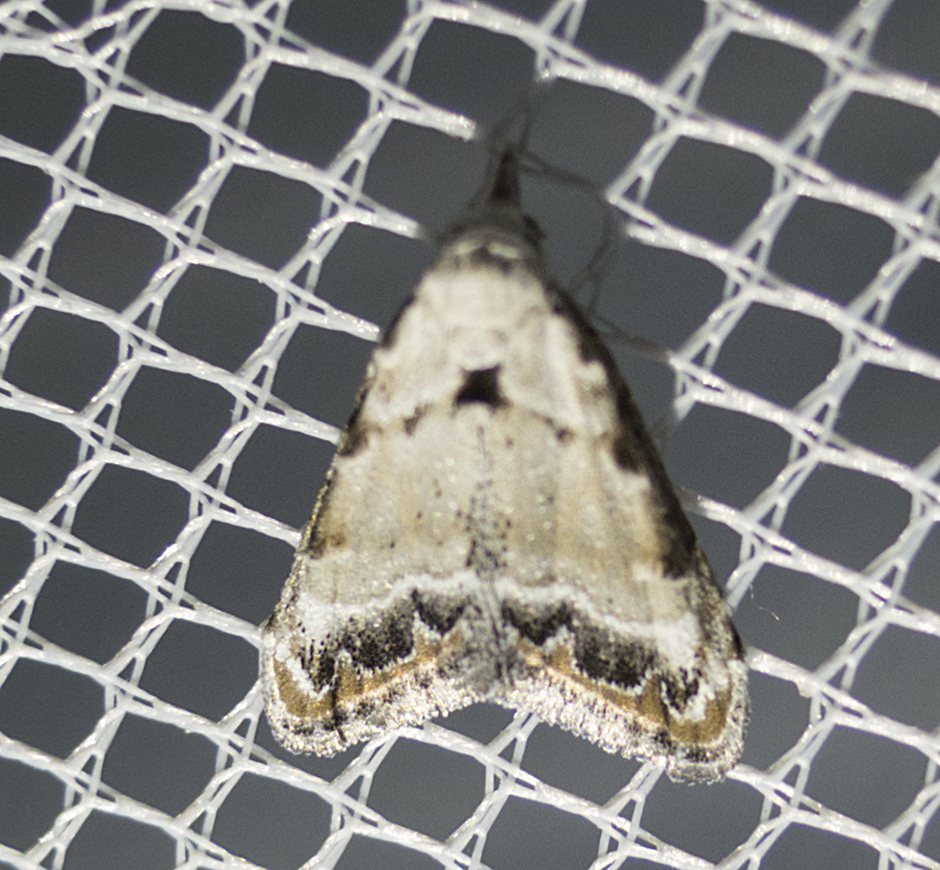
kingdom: Animalia
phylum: Arthropoda
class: Insecta
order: Lepidoptera
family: Nolidae
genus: Nola
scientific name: Nola chlamitulalis
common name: Jersey black arches
